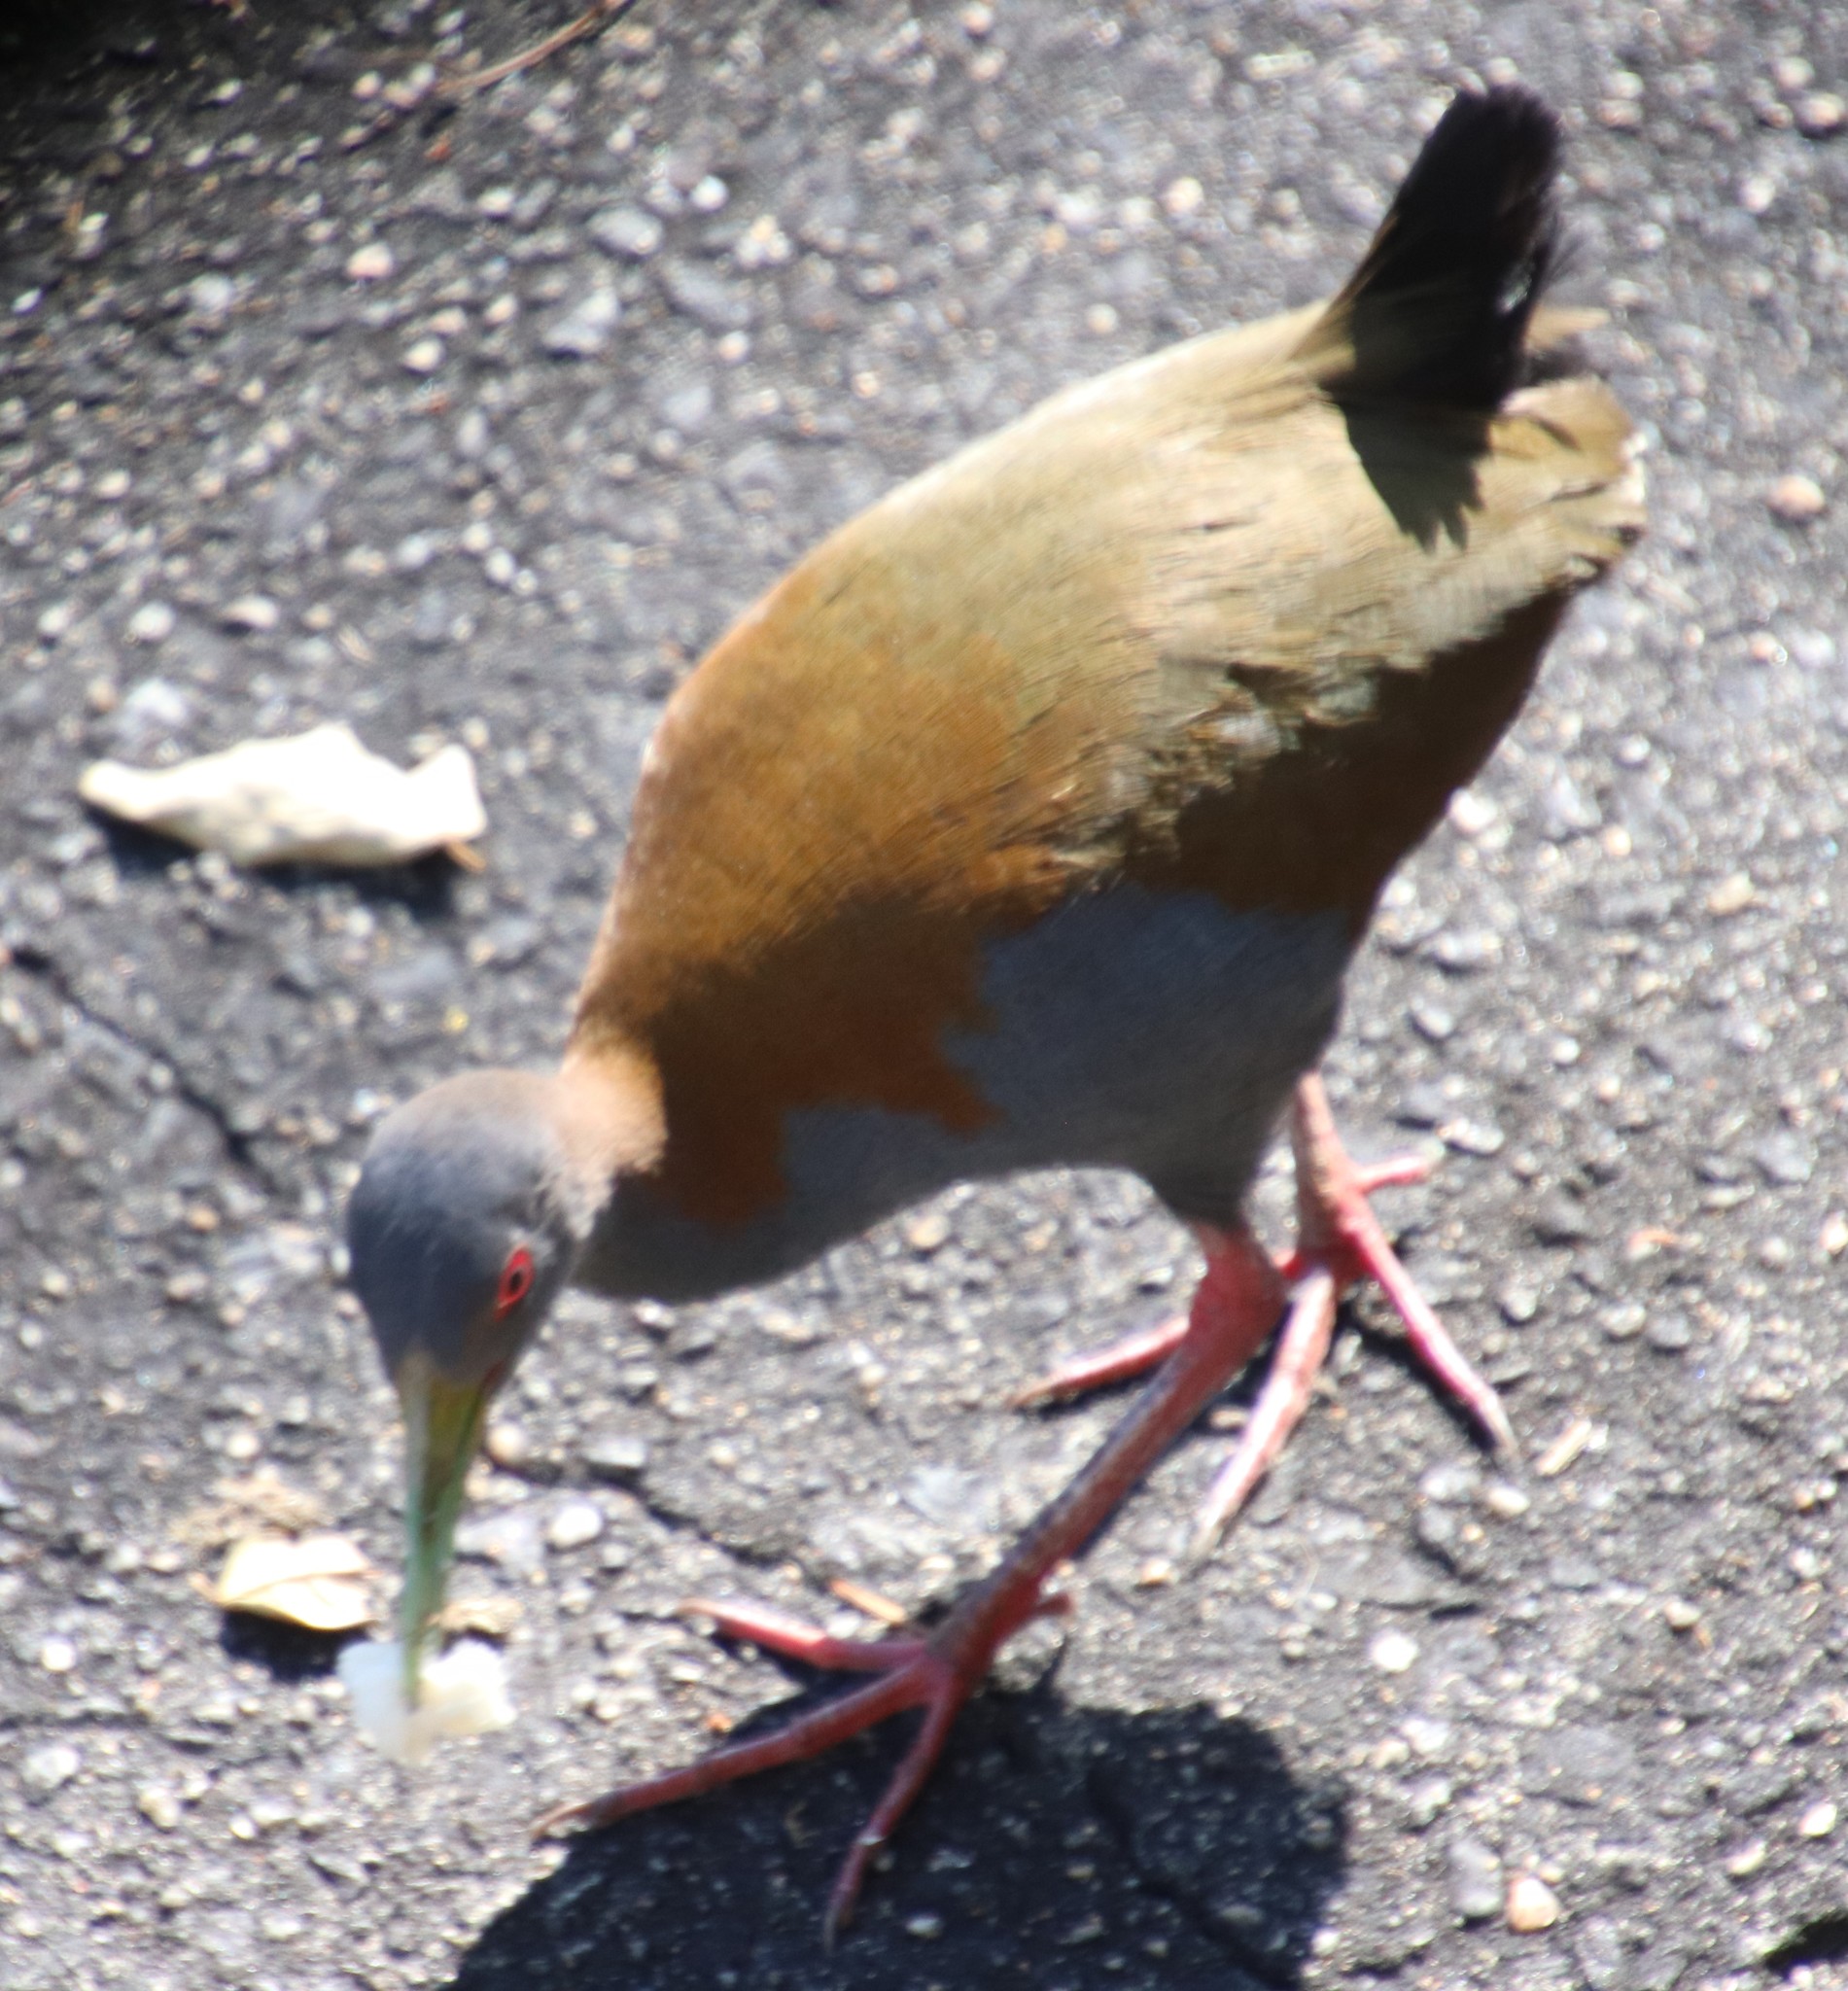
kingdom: Animalia
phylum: Chordata
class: Aves
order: Gruiformes
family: Rallidae
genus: Aramides
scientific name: Aramides saracura
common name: Slaty-breasted wood rail
